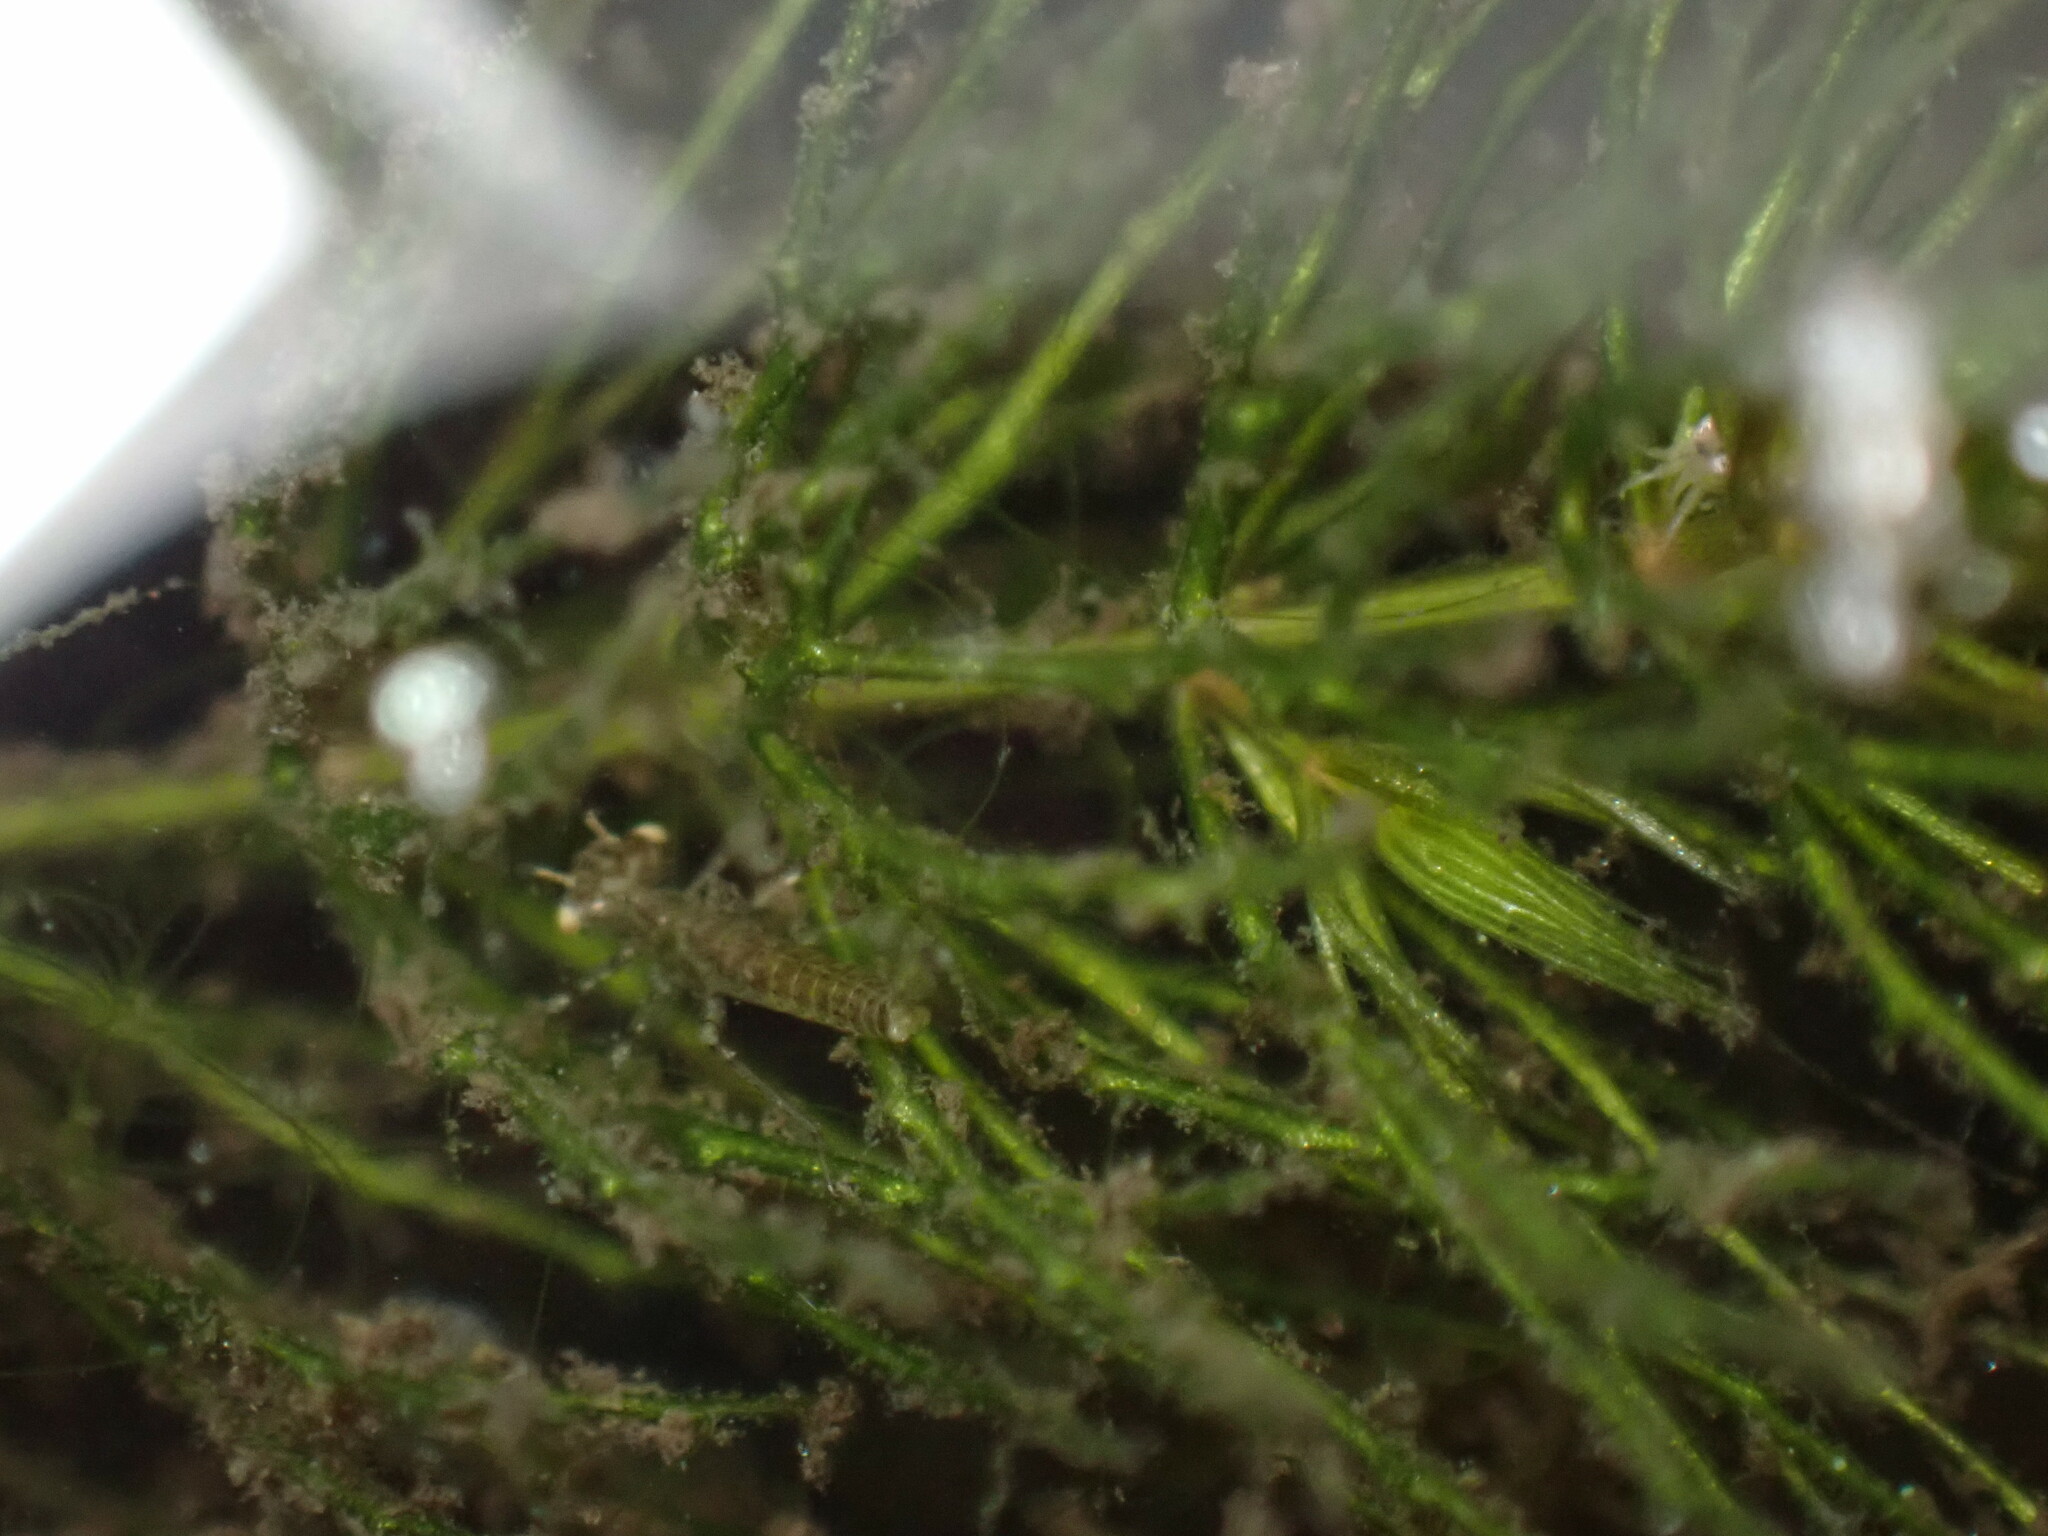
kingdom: Plantae
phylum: Tracheophyta
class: Magnoliopsida
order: Ceratophyllales
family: Ceratophyllaceae
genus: Ceratophyllum
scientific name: Ceratophyllum demersum
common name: Rigid hornwort
